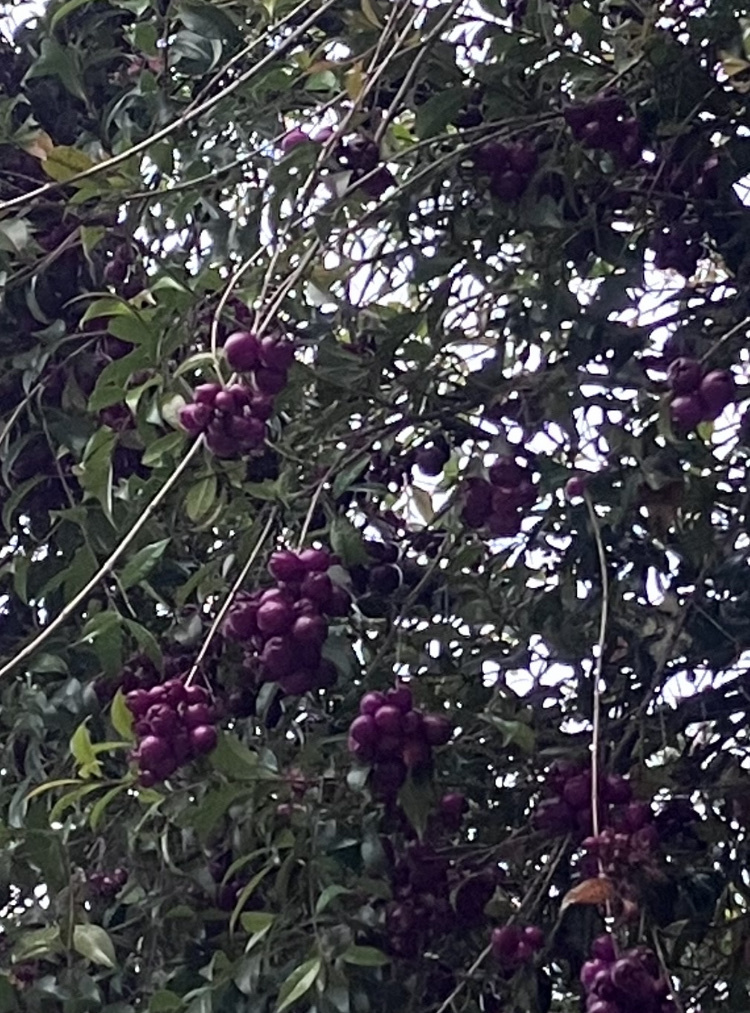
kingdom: Plantae
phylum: Tracheophyta
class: Magnoliopsida
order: Myrtales
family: Myrtaceae
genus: Syzygium
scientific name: Syzygium paniculatum
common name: Magenta lilly-pilly
